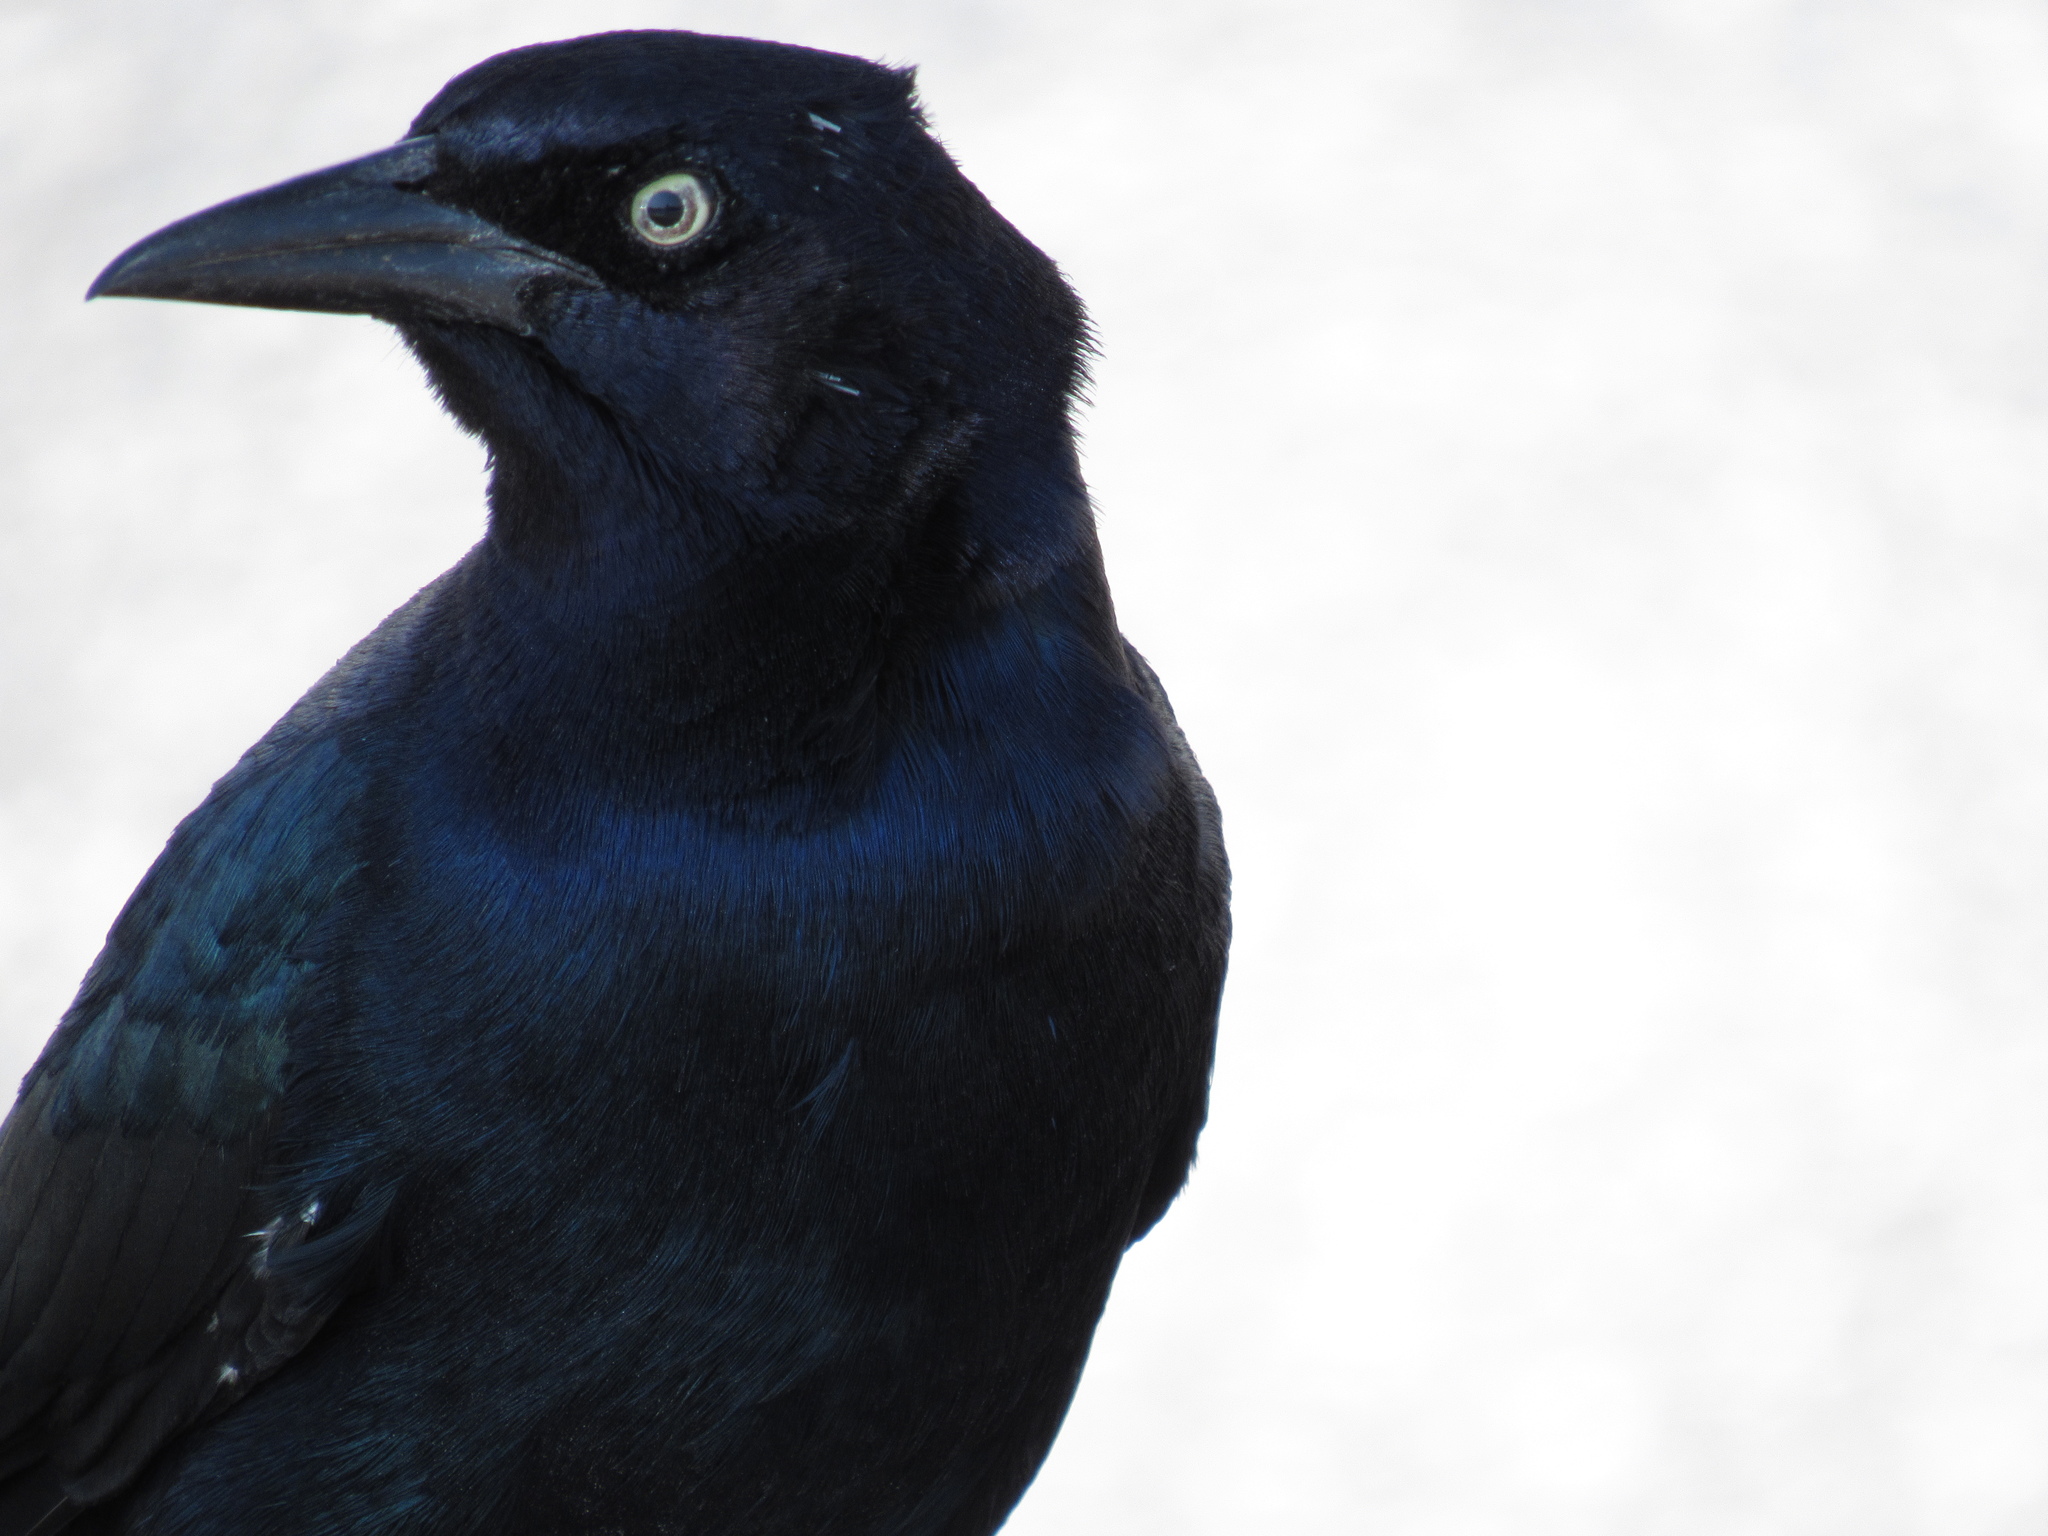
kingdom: Animalia
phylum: Chordata
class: Aves
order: Passeriformes
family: Icteridae
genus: Quiscalus
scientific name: Quiscalus major
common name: Boat-tailed grackle
